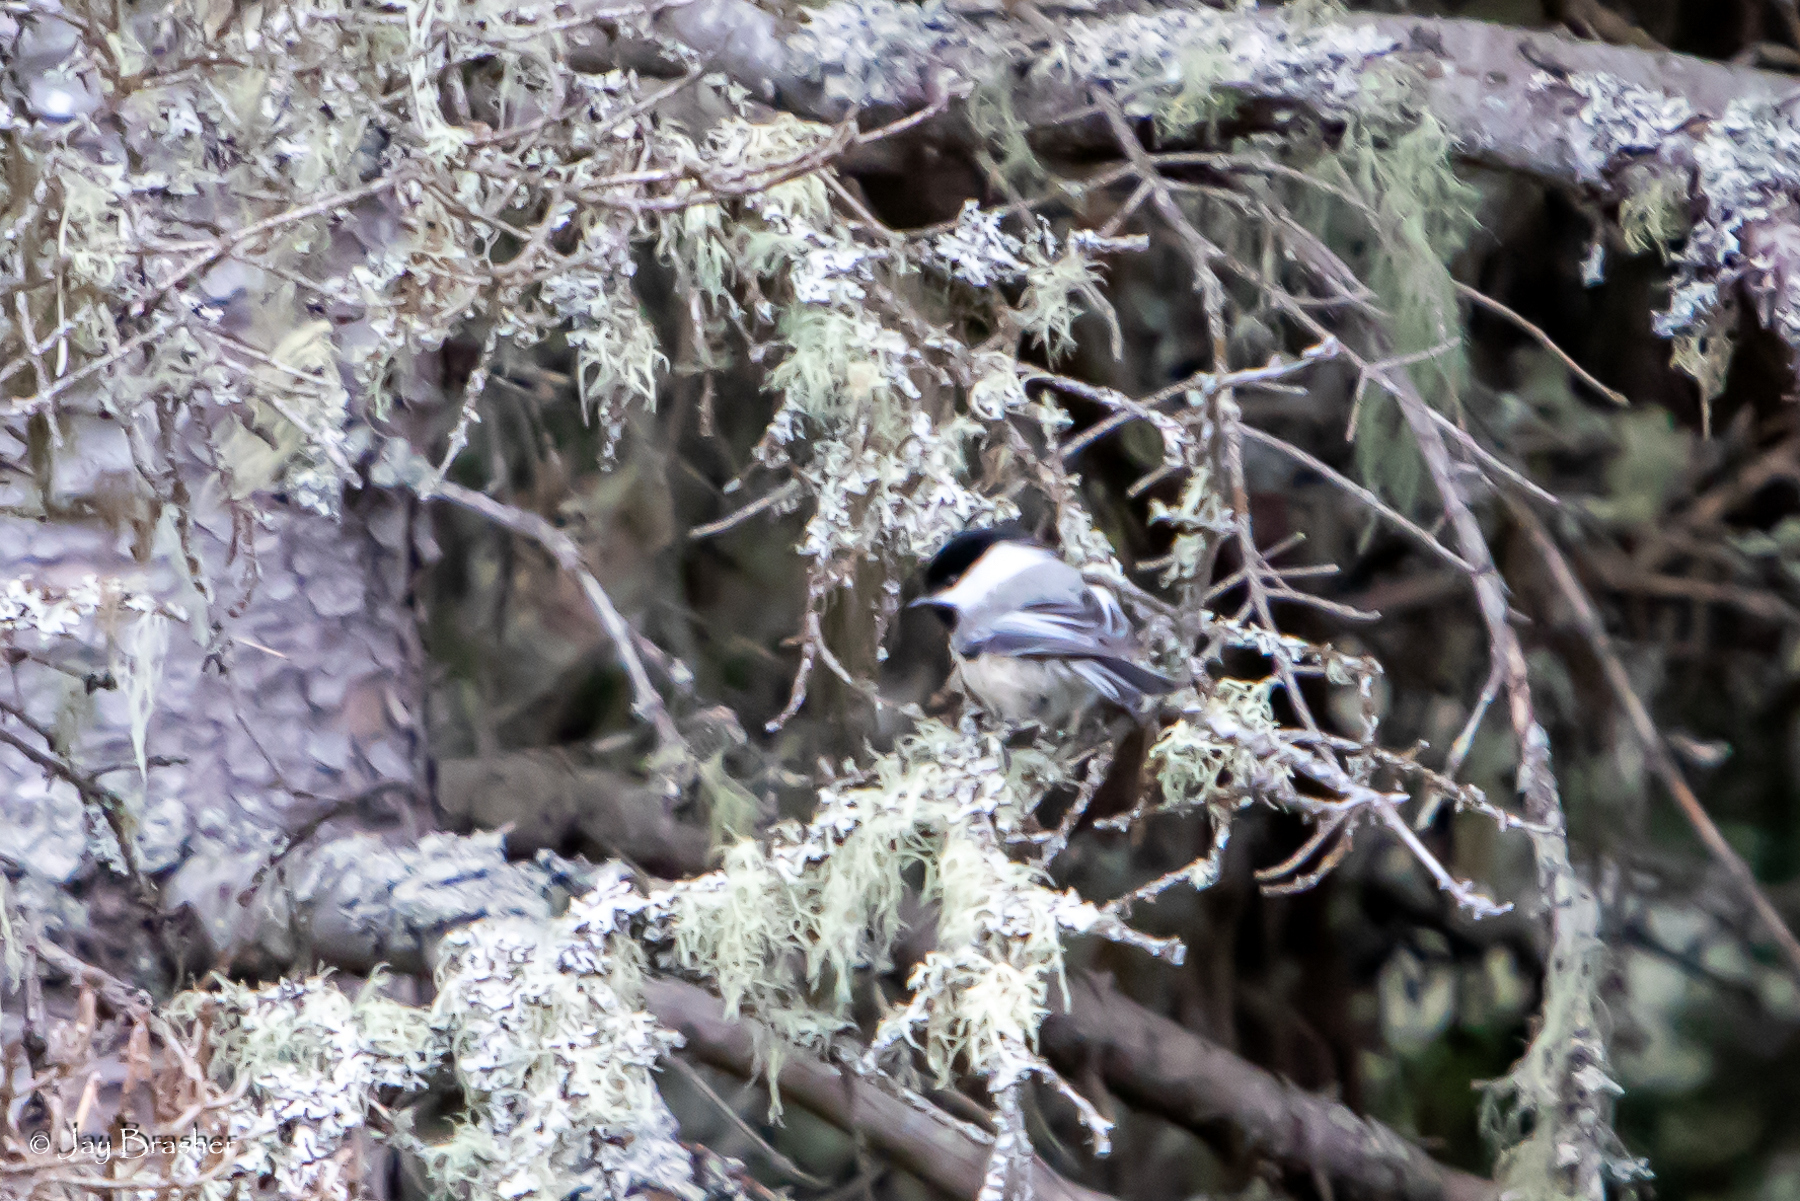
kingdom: Animalia
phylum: Chordata
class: Aves
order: Passeriformes
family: Paridae
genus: Poecile
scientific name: Poecile atricapillus
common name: Black-capped chickadee
